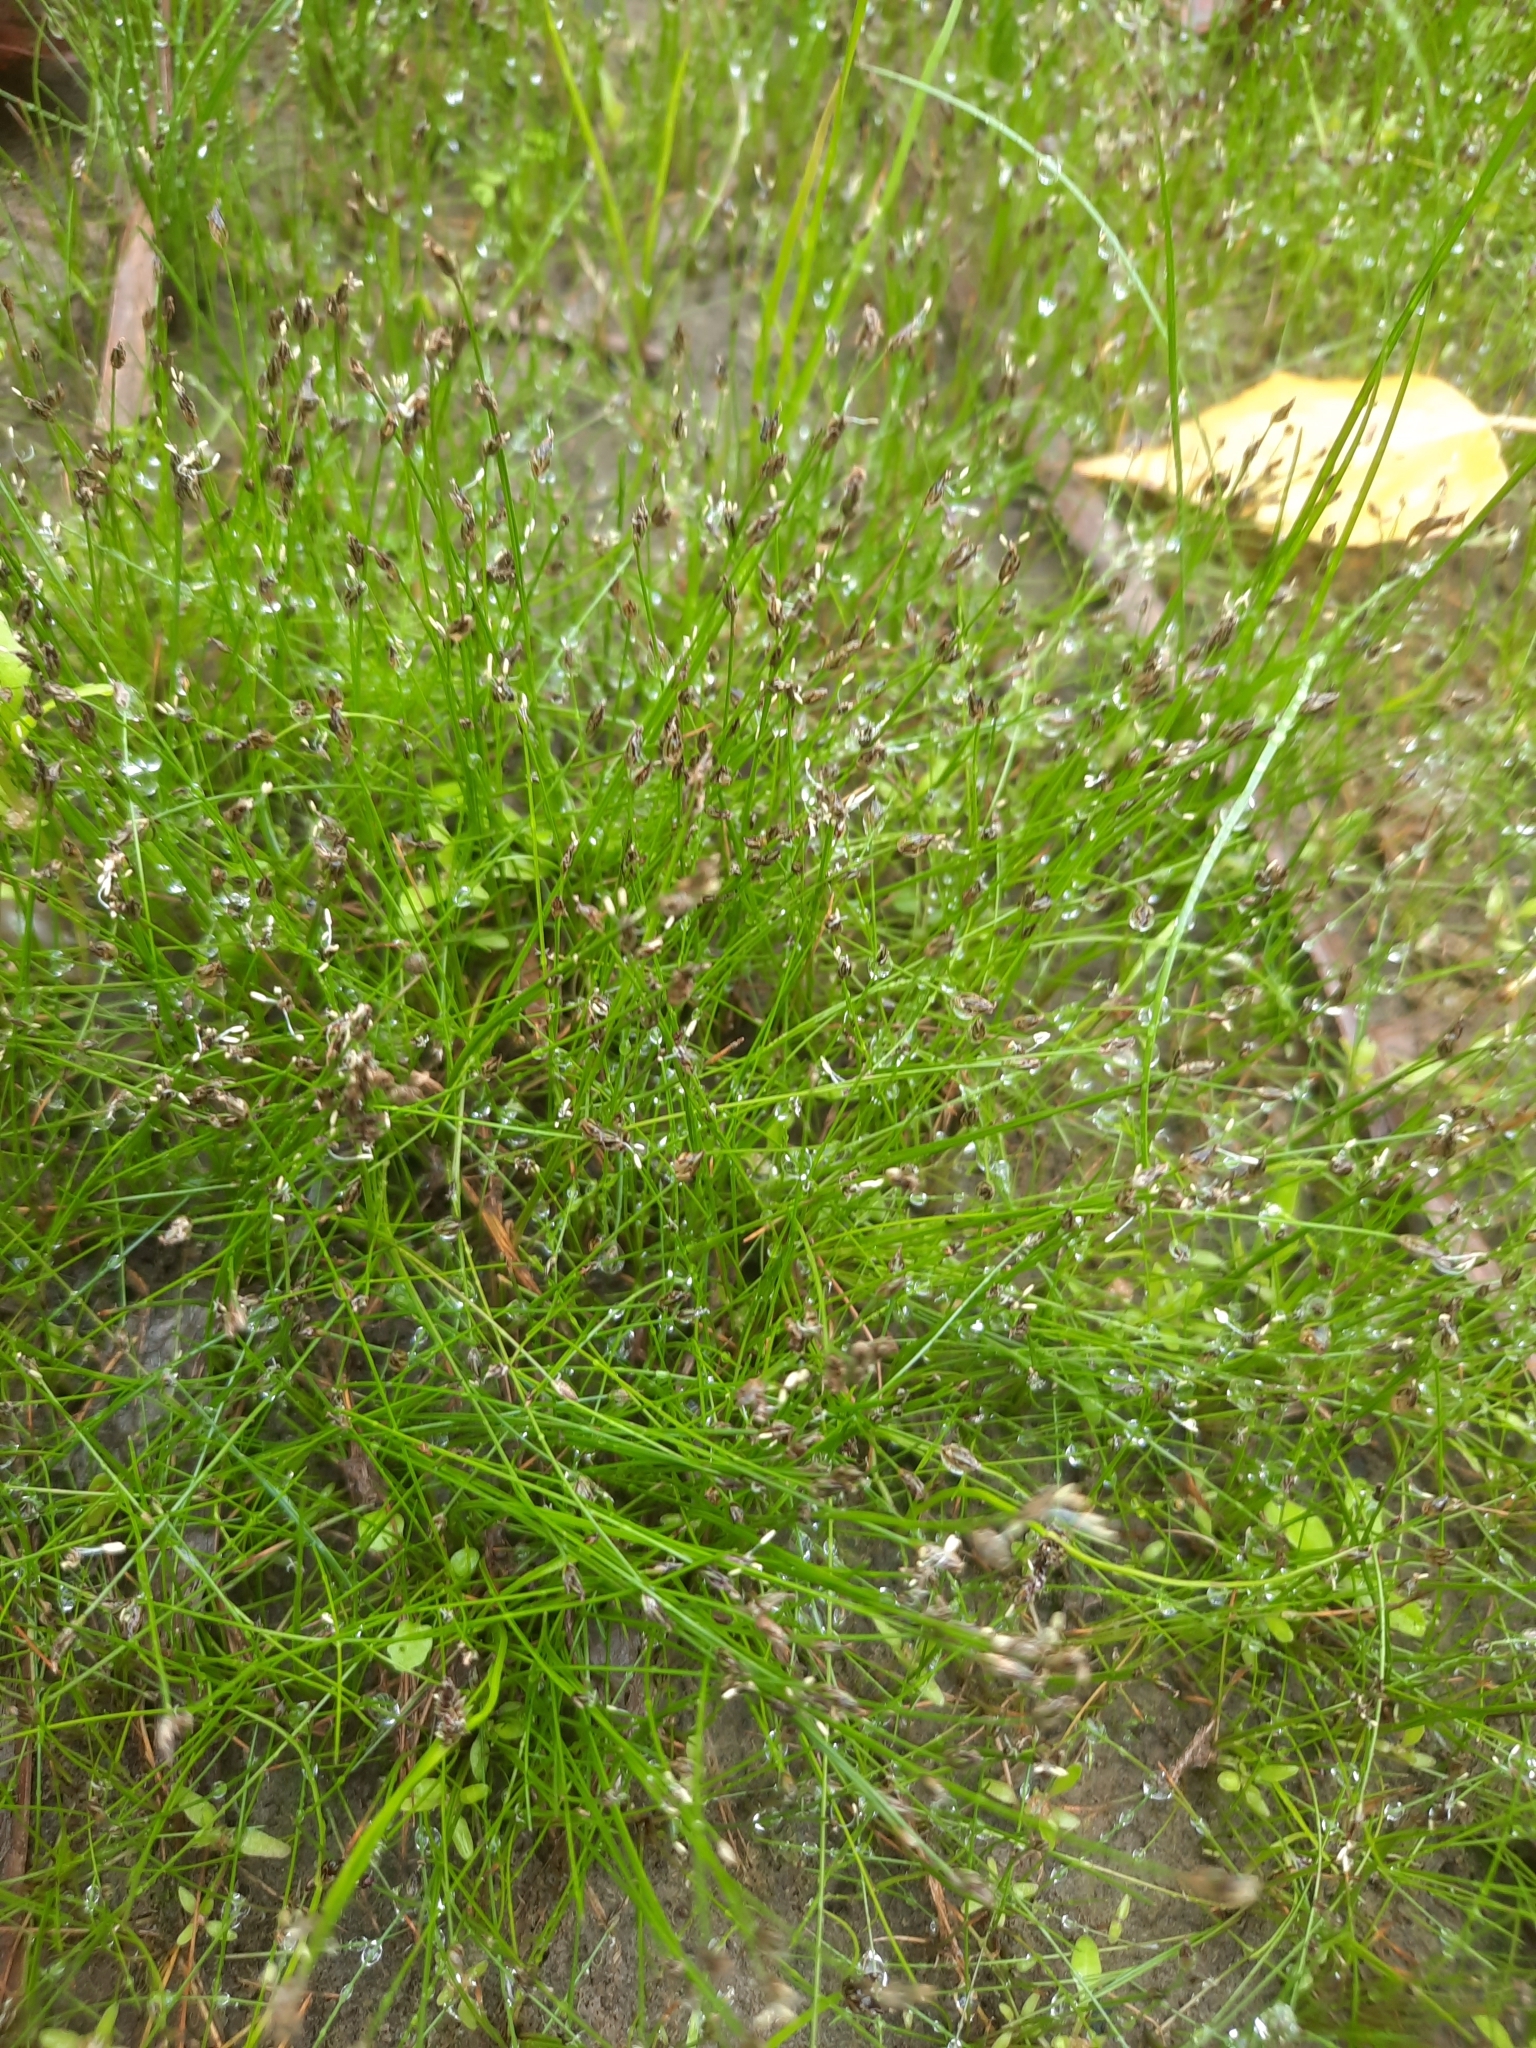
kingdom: Plantae
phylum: Tracheophyta
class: Liliopsida
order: Poales
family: Cyperaceae
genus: Eleocharis
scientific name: Eleocharis acicularis
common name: Needle spike-rush
